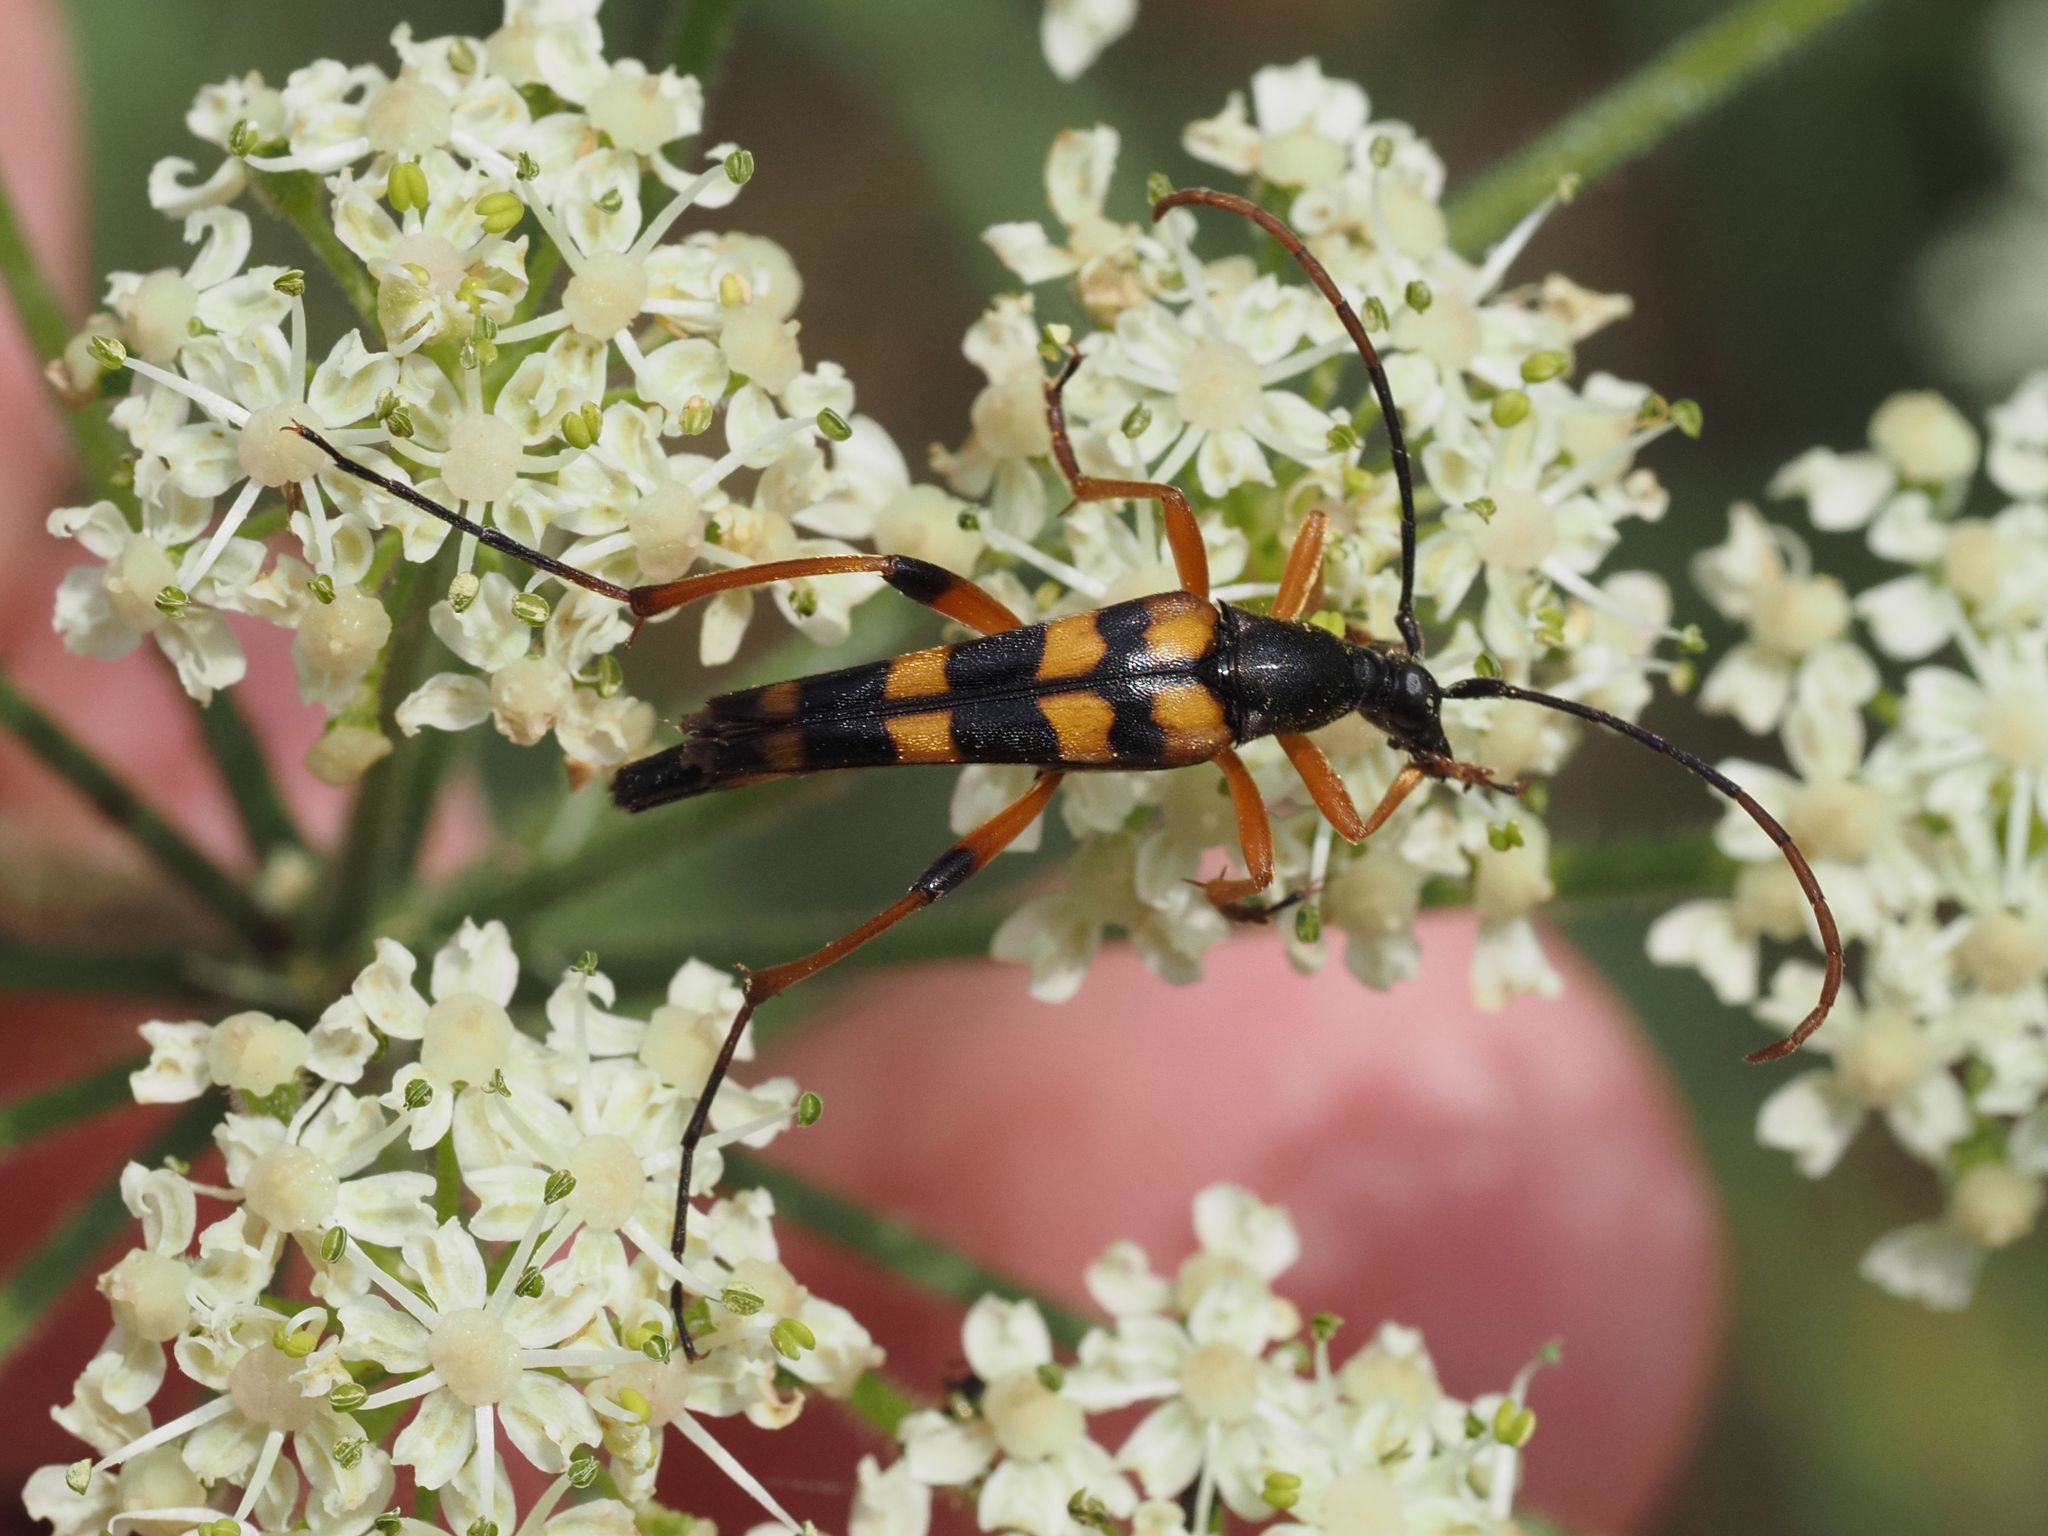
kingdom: Animalia
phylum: Arthropoda
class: Insecta
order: Coleoptera
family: Cerambycidae
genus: Strangalia
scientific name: Strangalia attenuata
